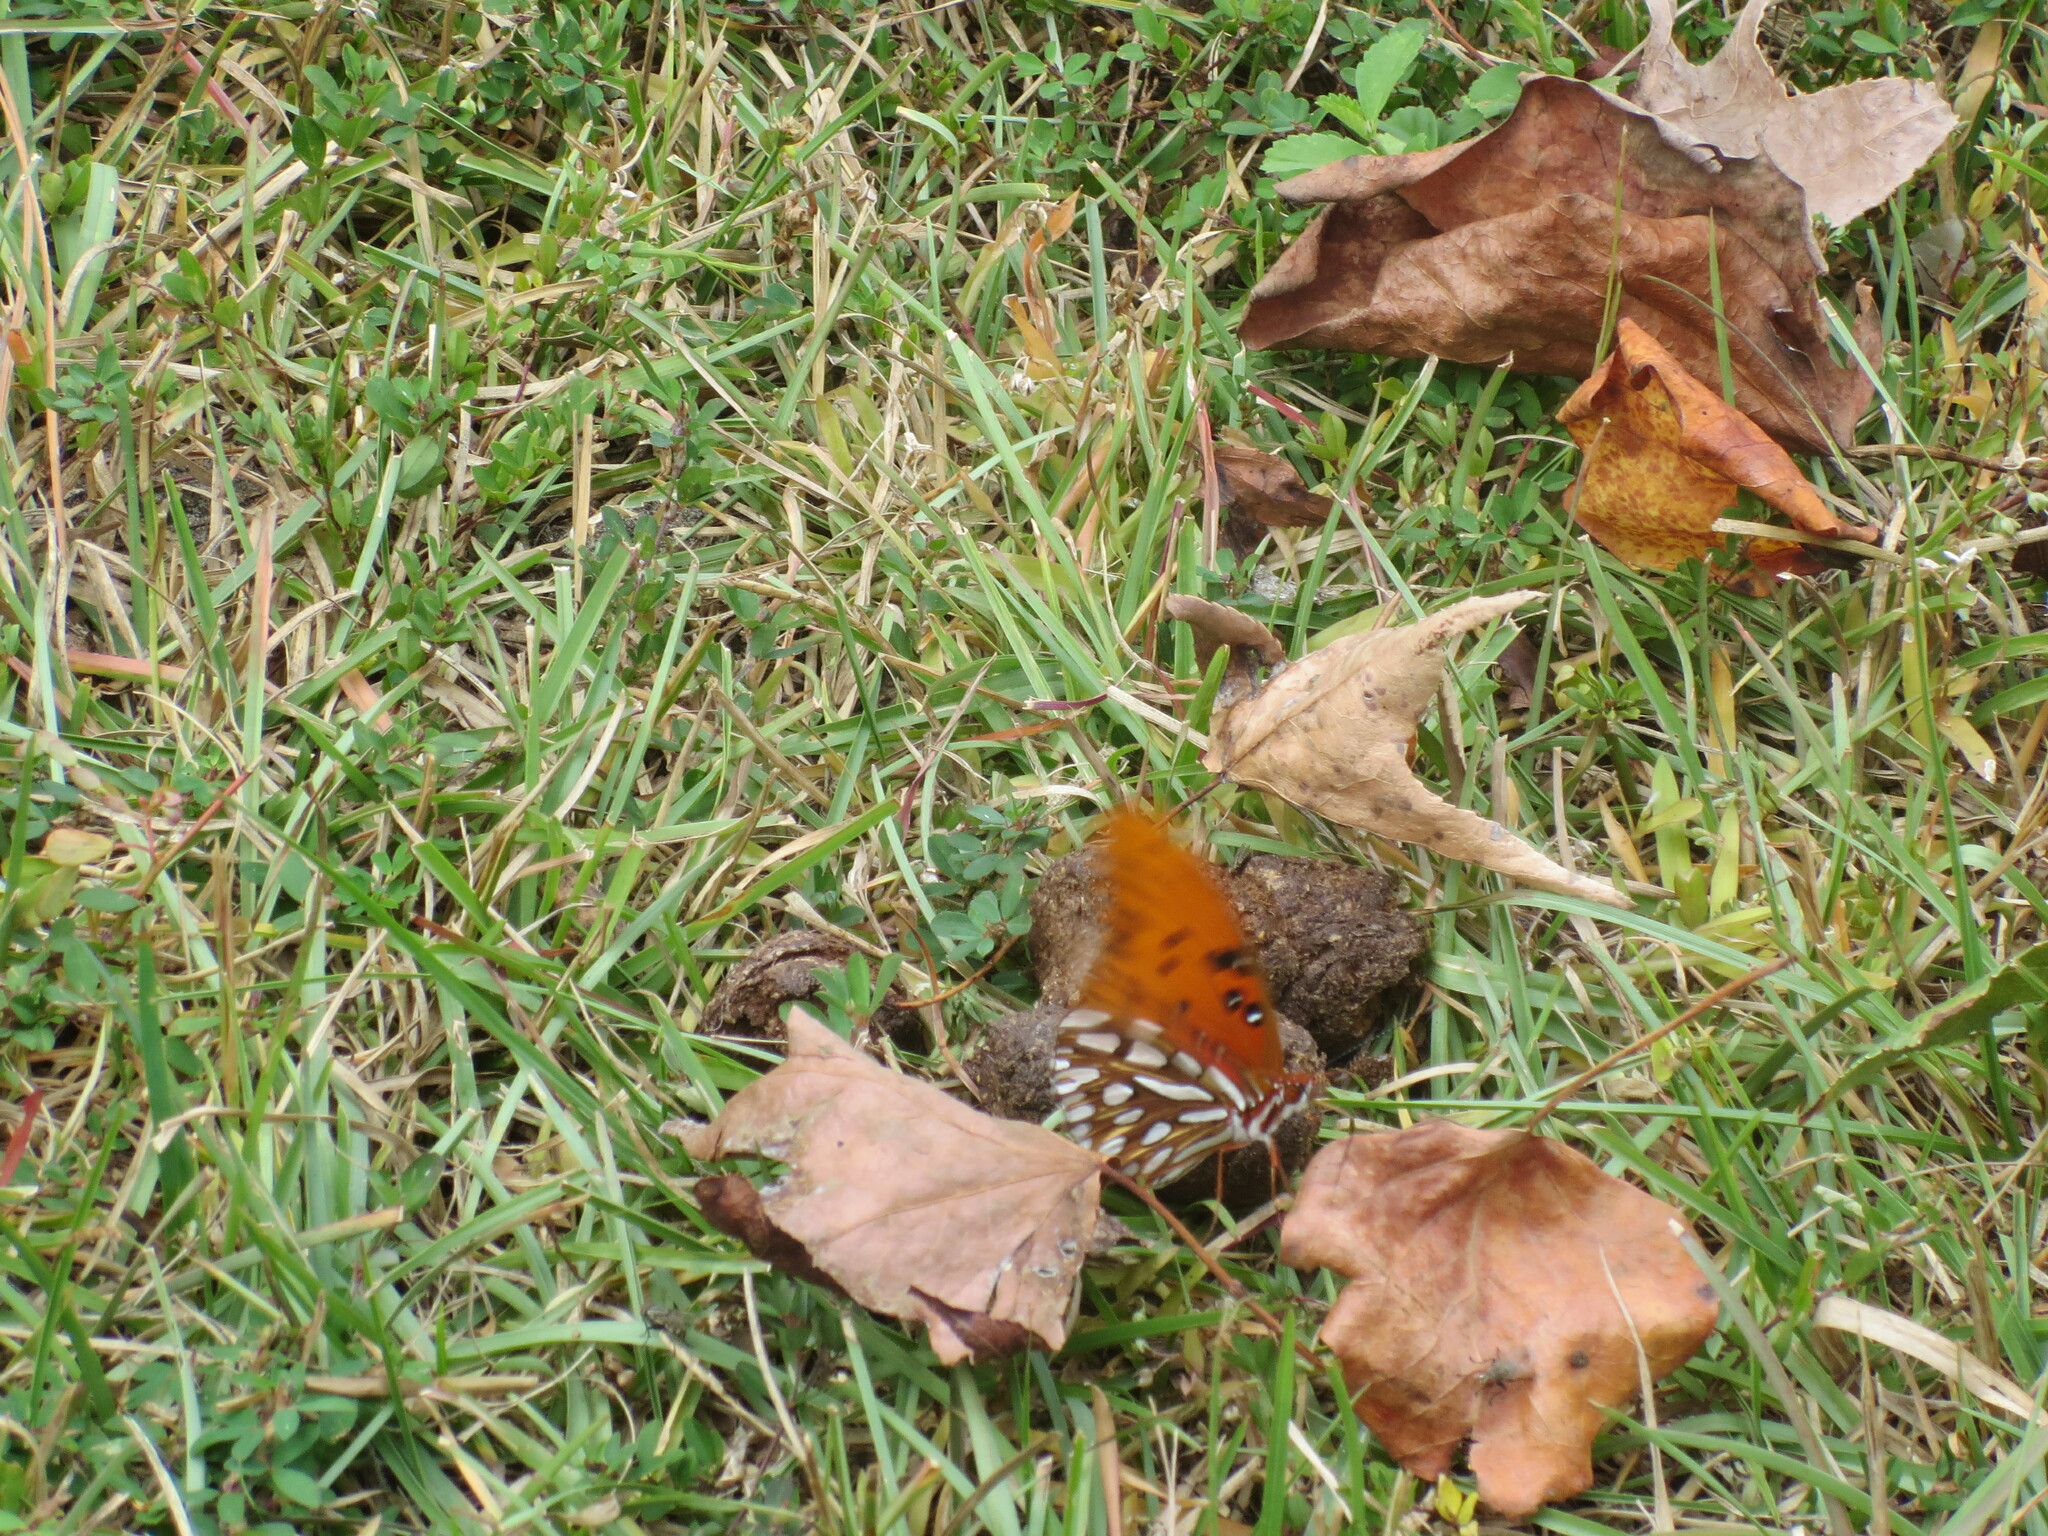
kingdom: Animalia
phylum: Arthropoda
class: Insecta
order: Lepidoptera
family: Nymphalidae
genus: Dione
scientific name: Dione vanillae
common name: Gulf fritillary
